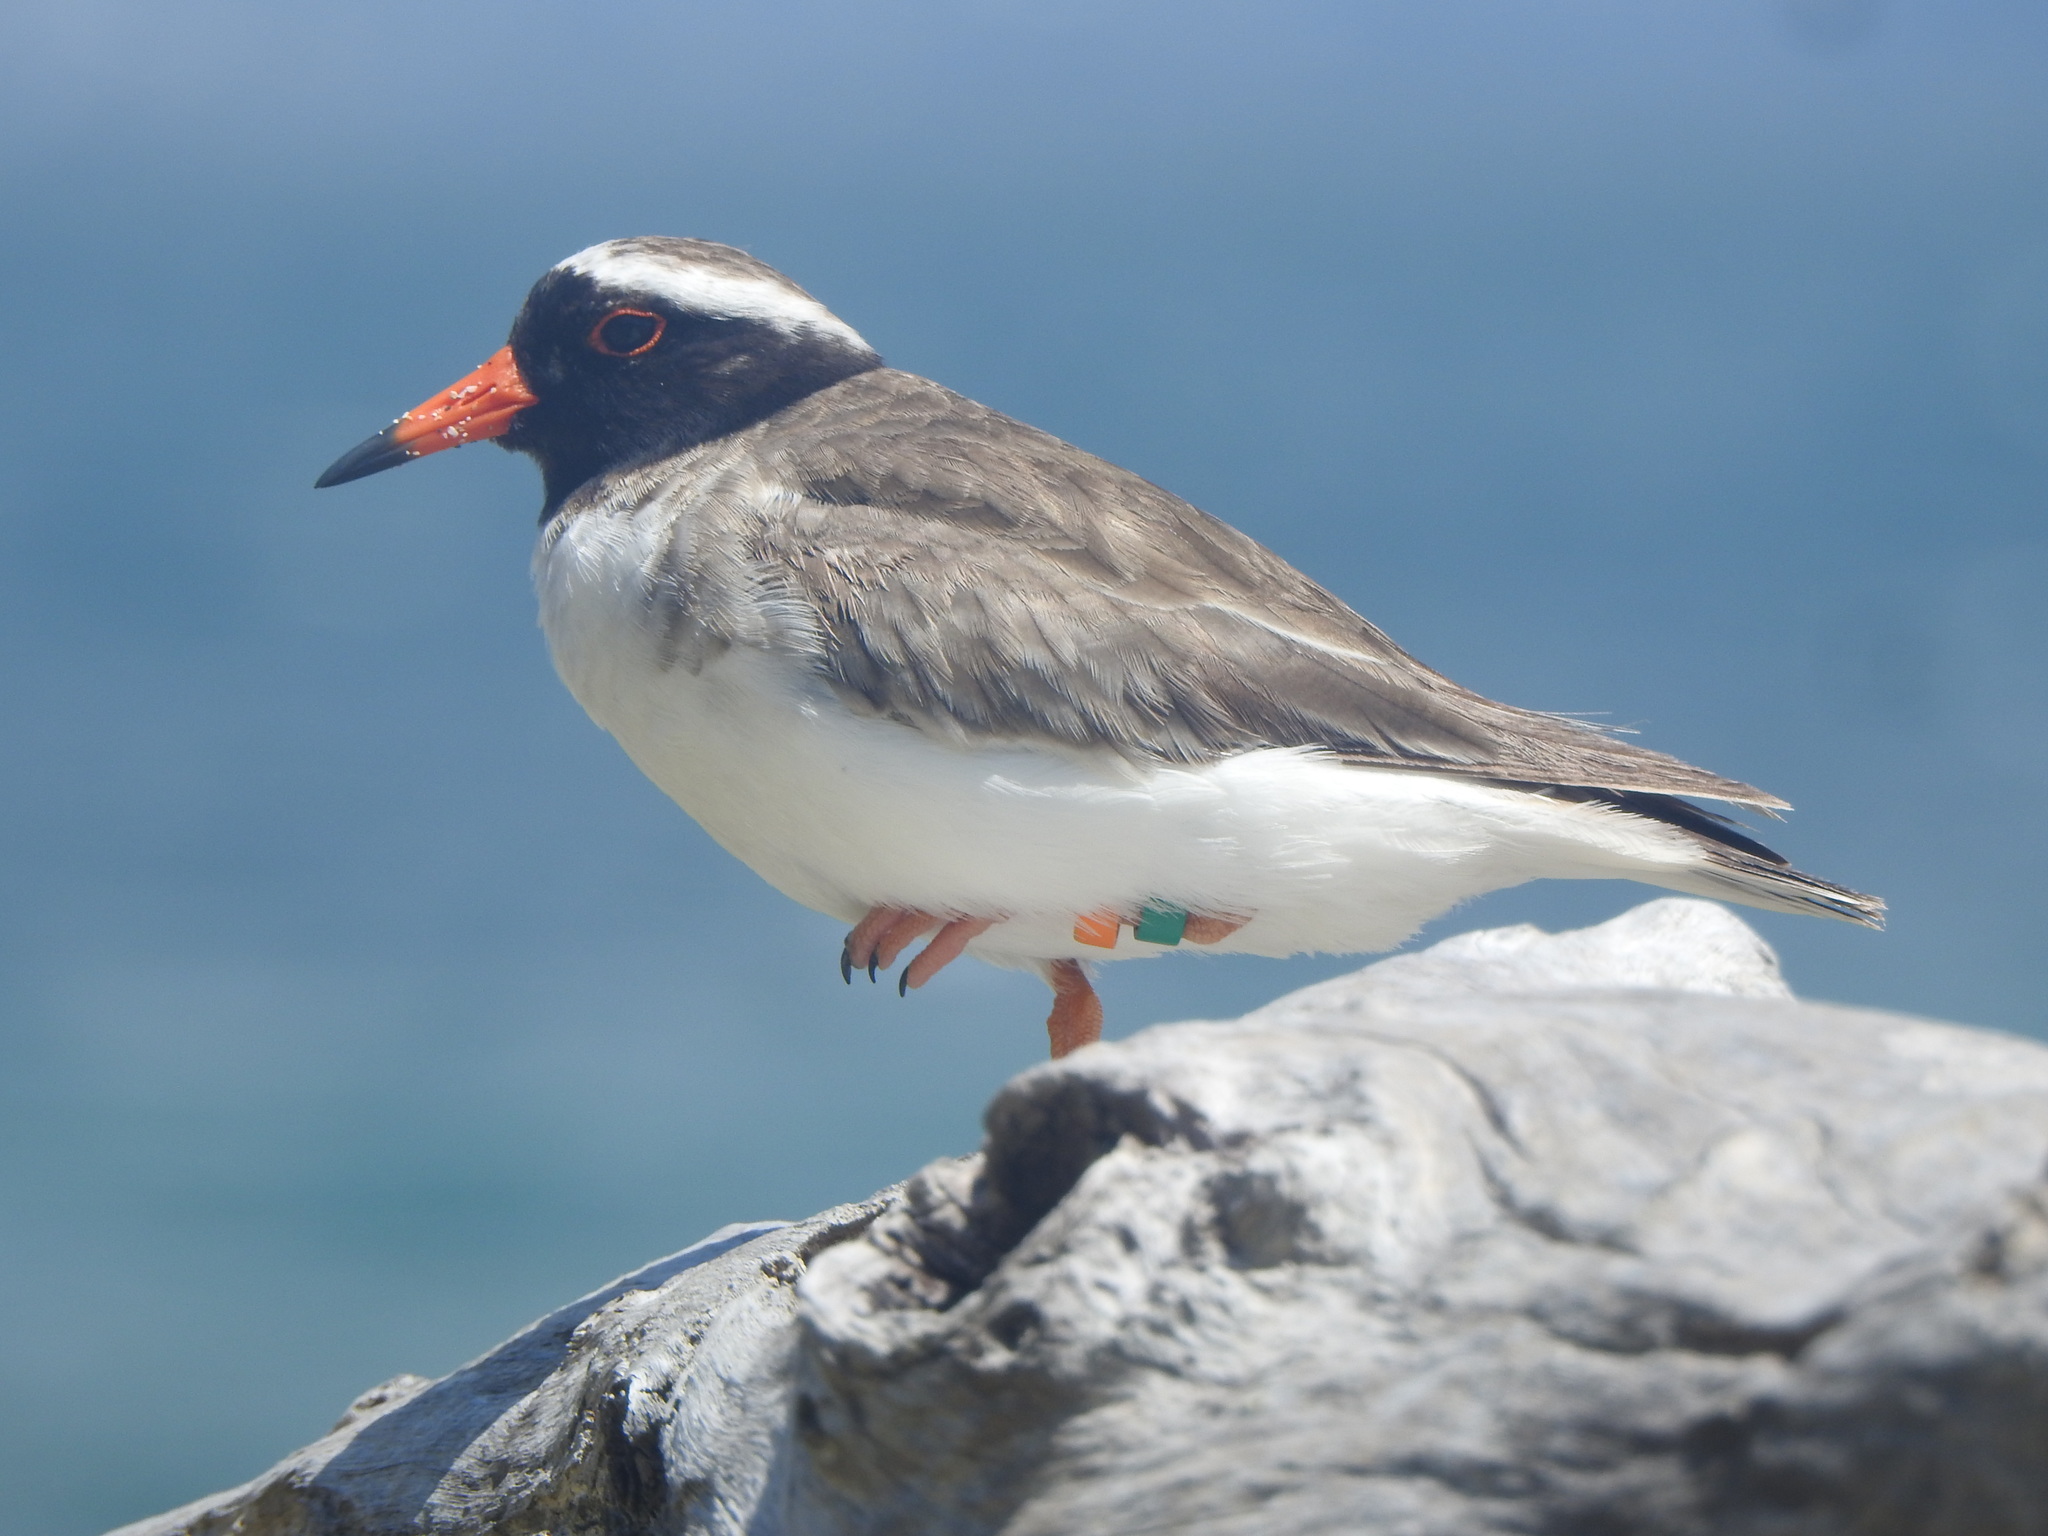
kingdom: Animalia
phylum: Chordata
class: Aves
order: Charadriiformes
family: Charadriidae
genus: Thinornis
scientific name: Thinornis novaeseelandiae
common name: Shore dotterel
